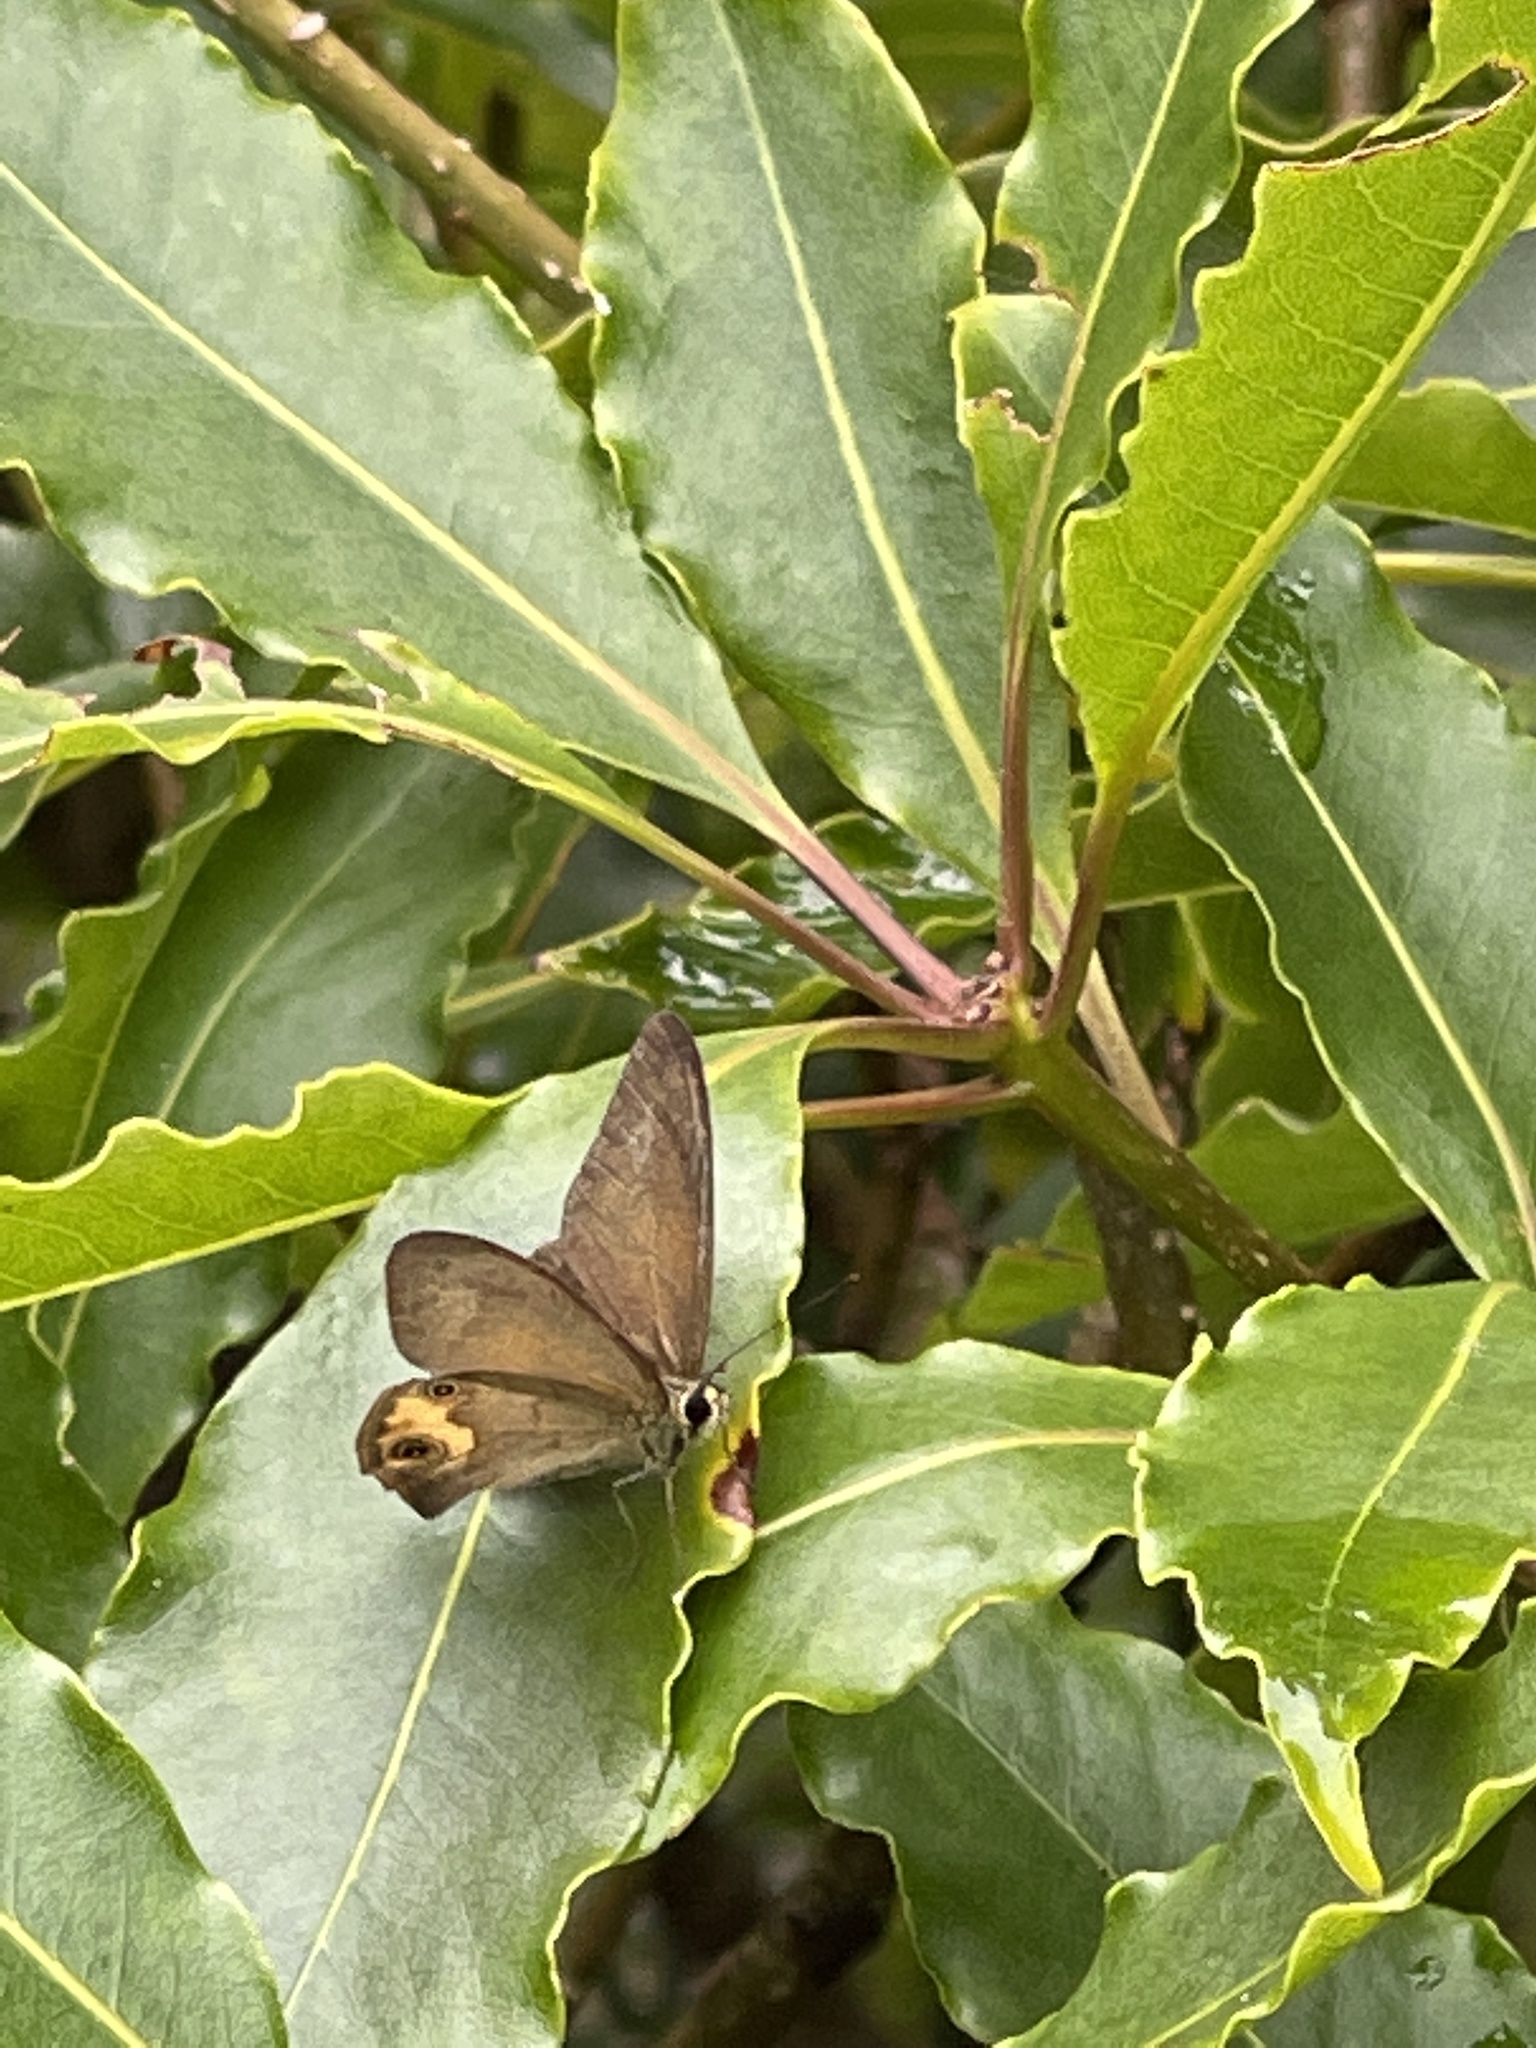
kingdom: Animalia
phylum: Arthropoda
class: Insecta
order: Lepidoptera
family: Nymphalidae
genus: Hypocysta
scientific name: Hypocysta metirius
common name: Brown ringlet
